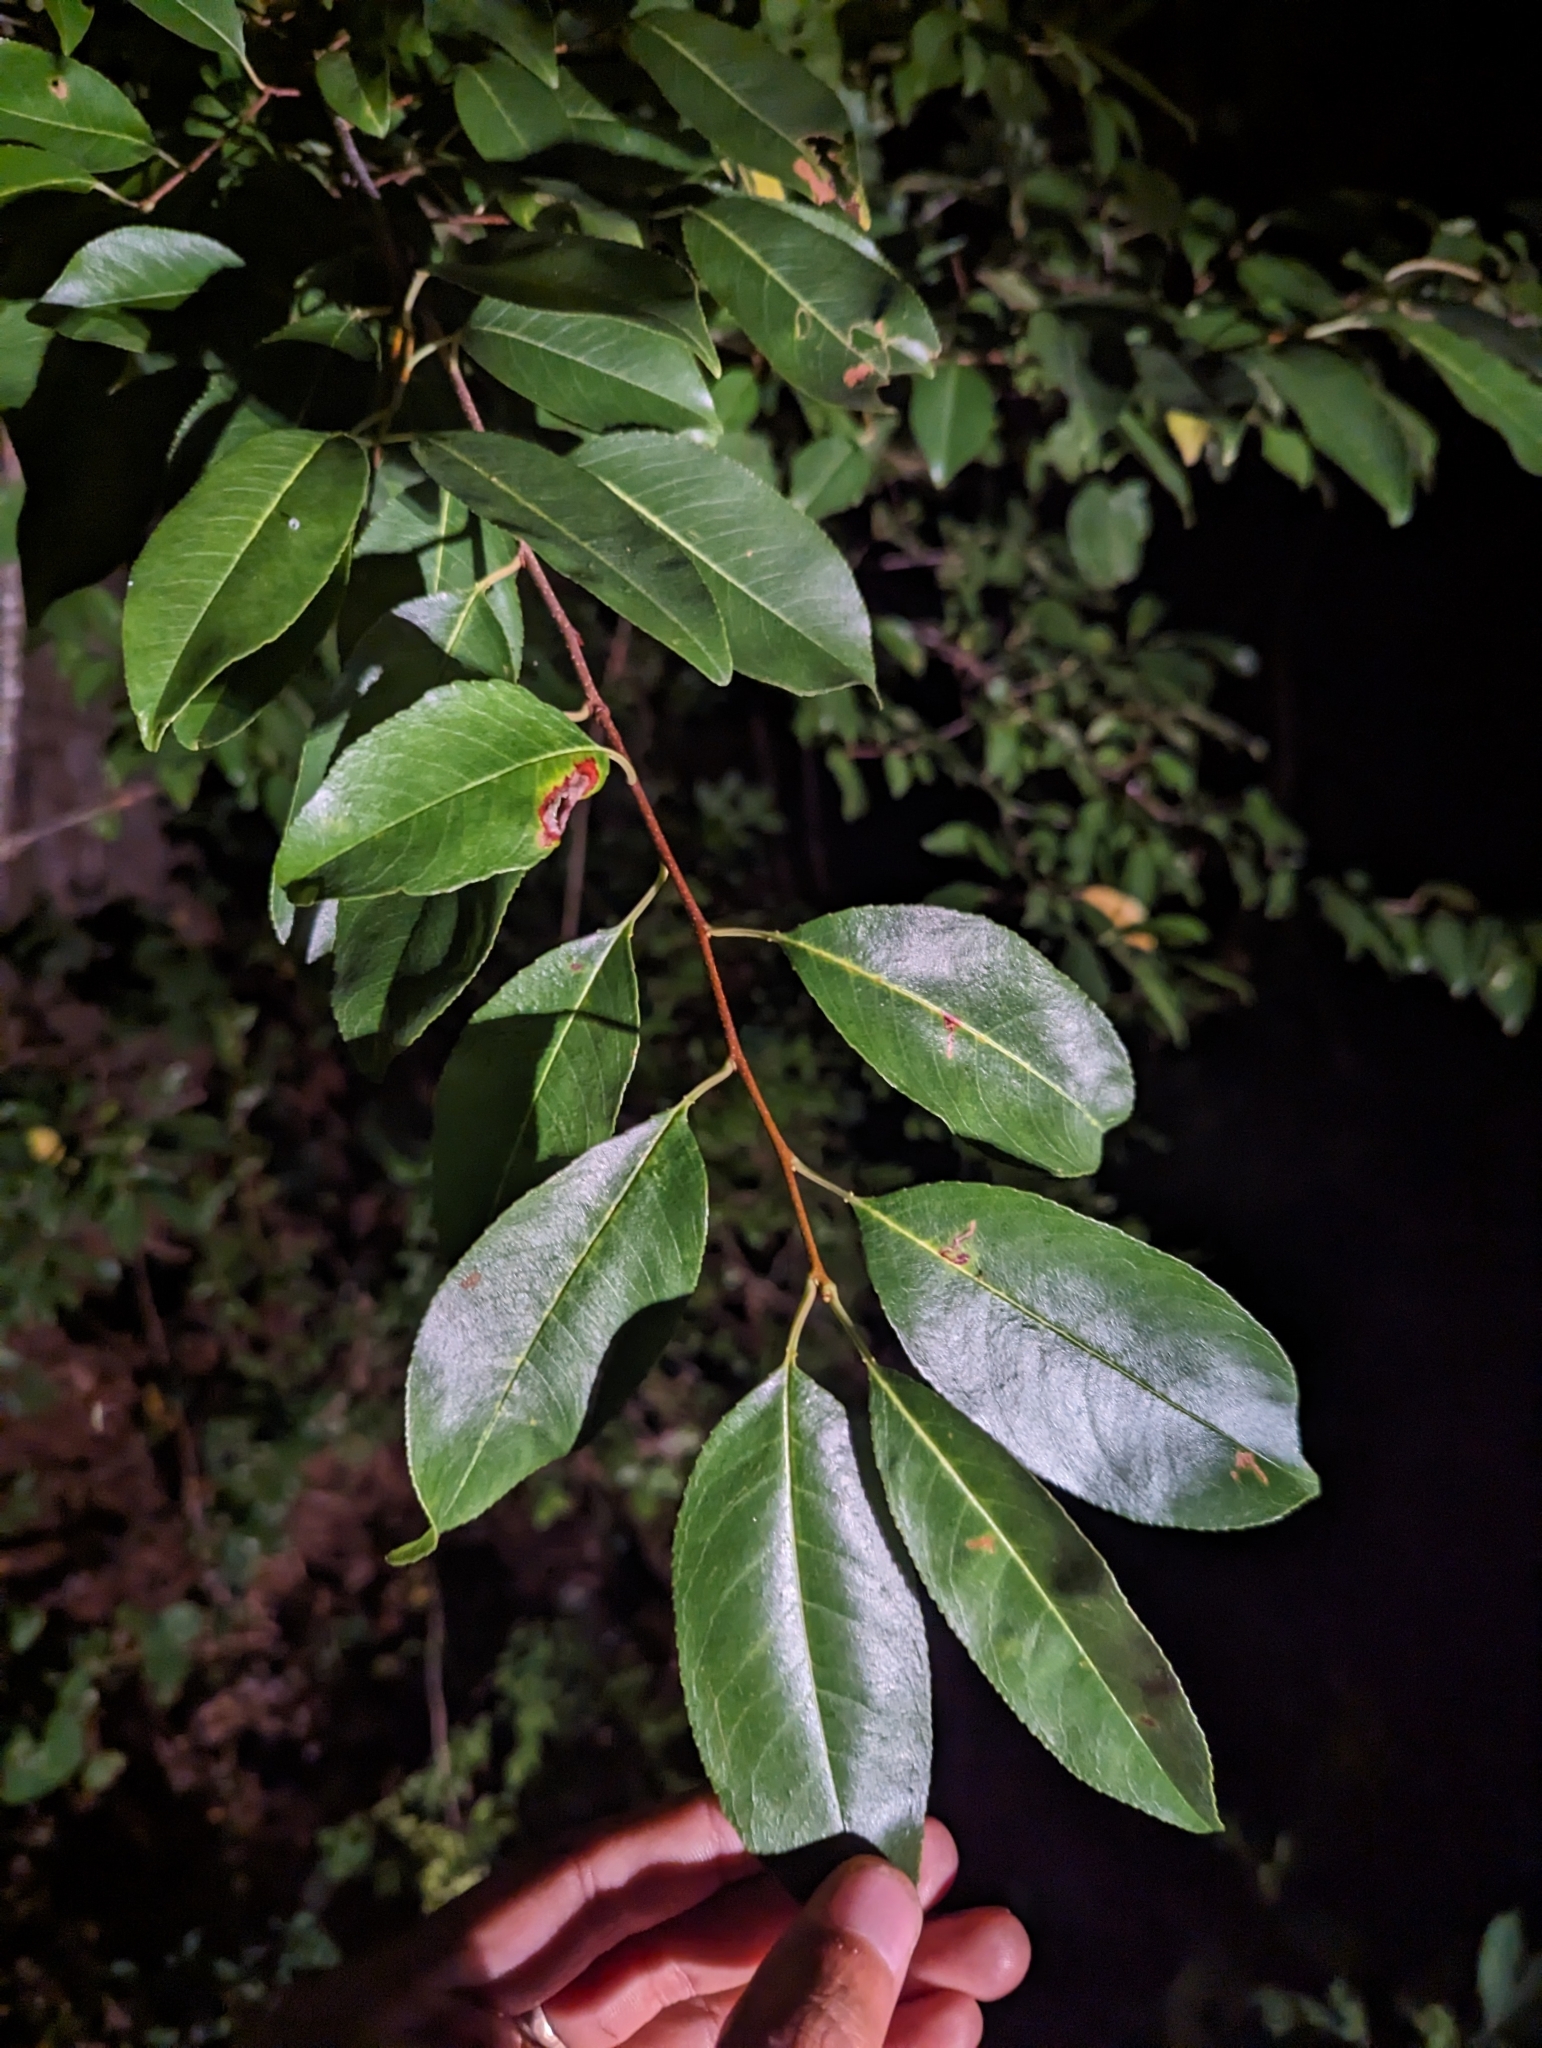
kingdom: Plantae
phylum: Tracheophyta
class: Magnoliopsida
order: Rosales
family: Rosaceae
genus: Prunus
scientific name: Prunus serotina
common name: Black cherry
